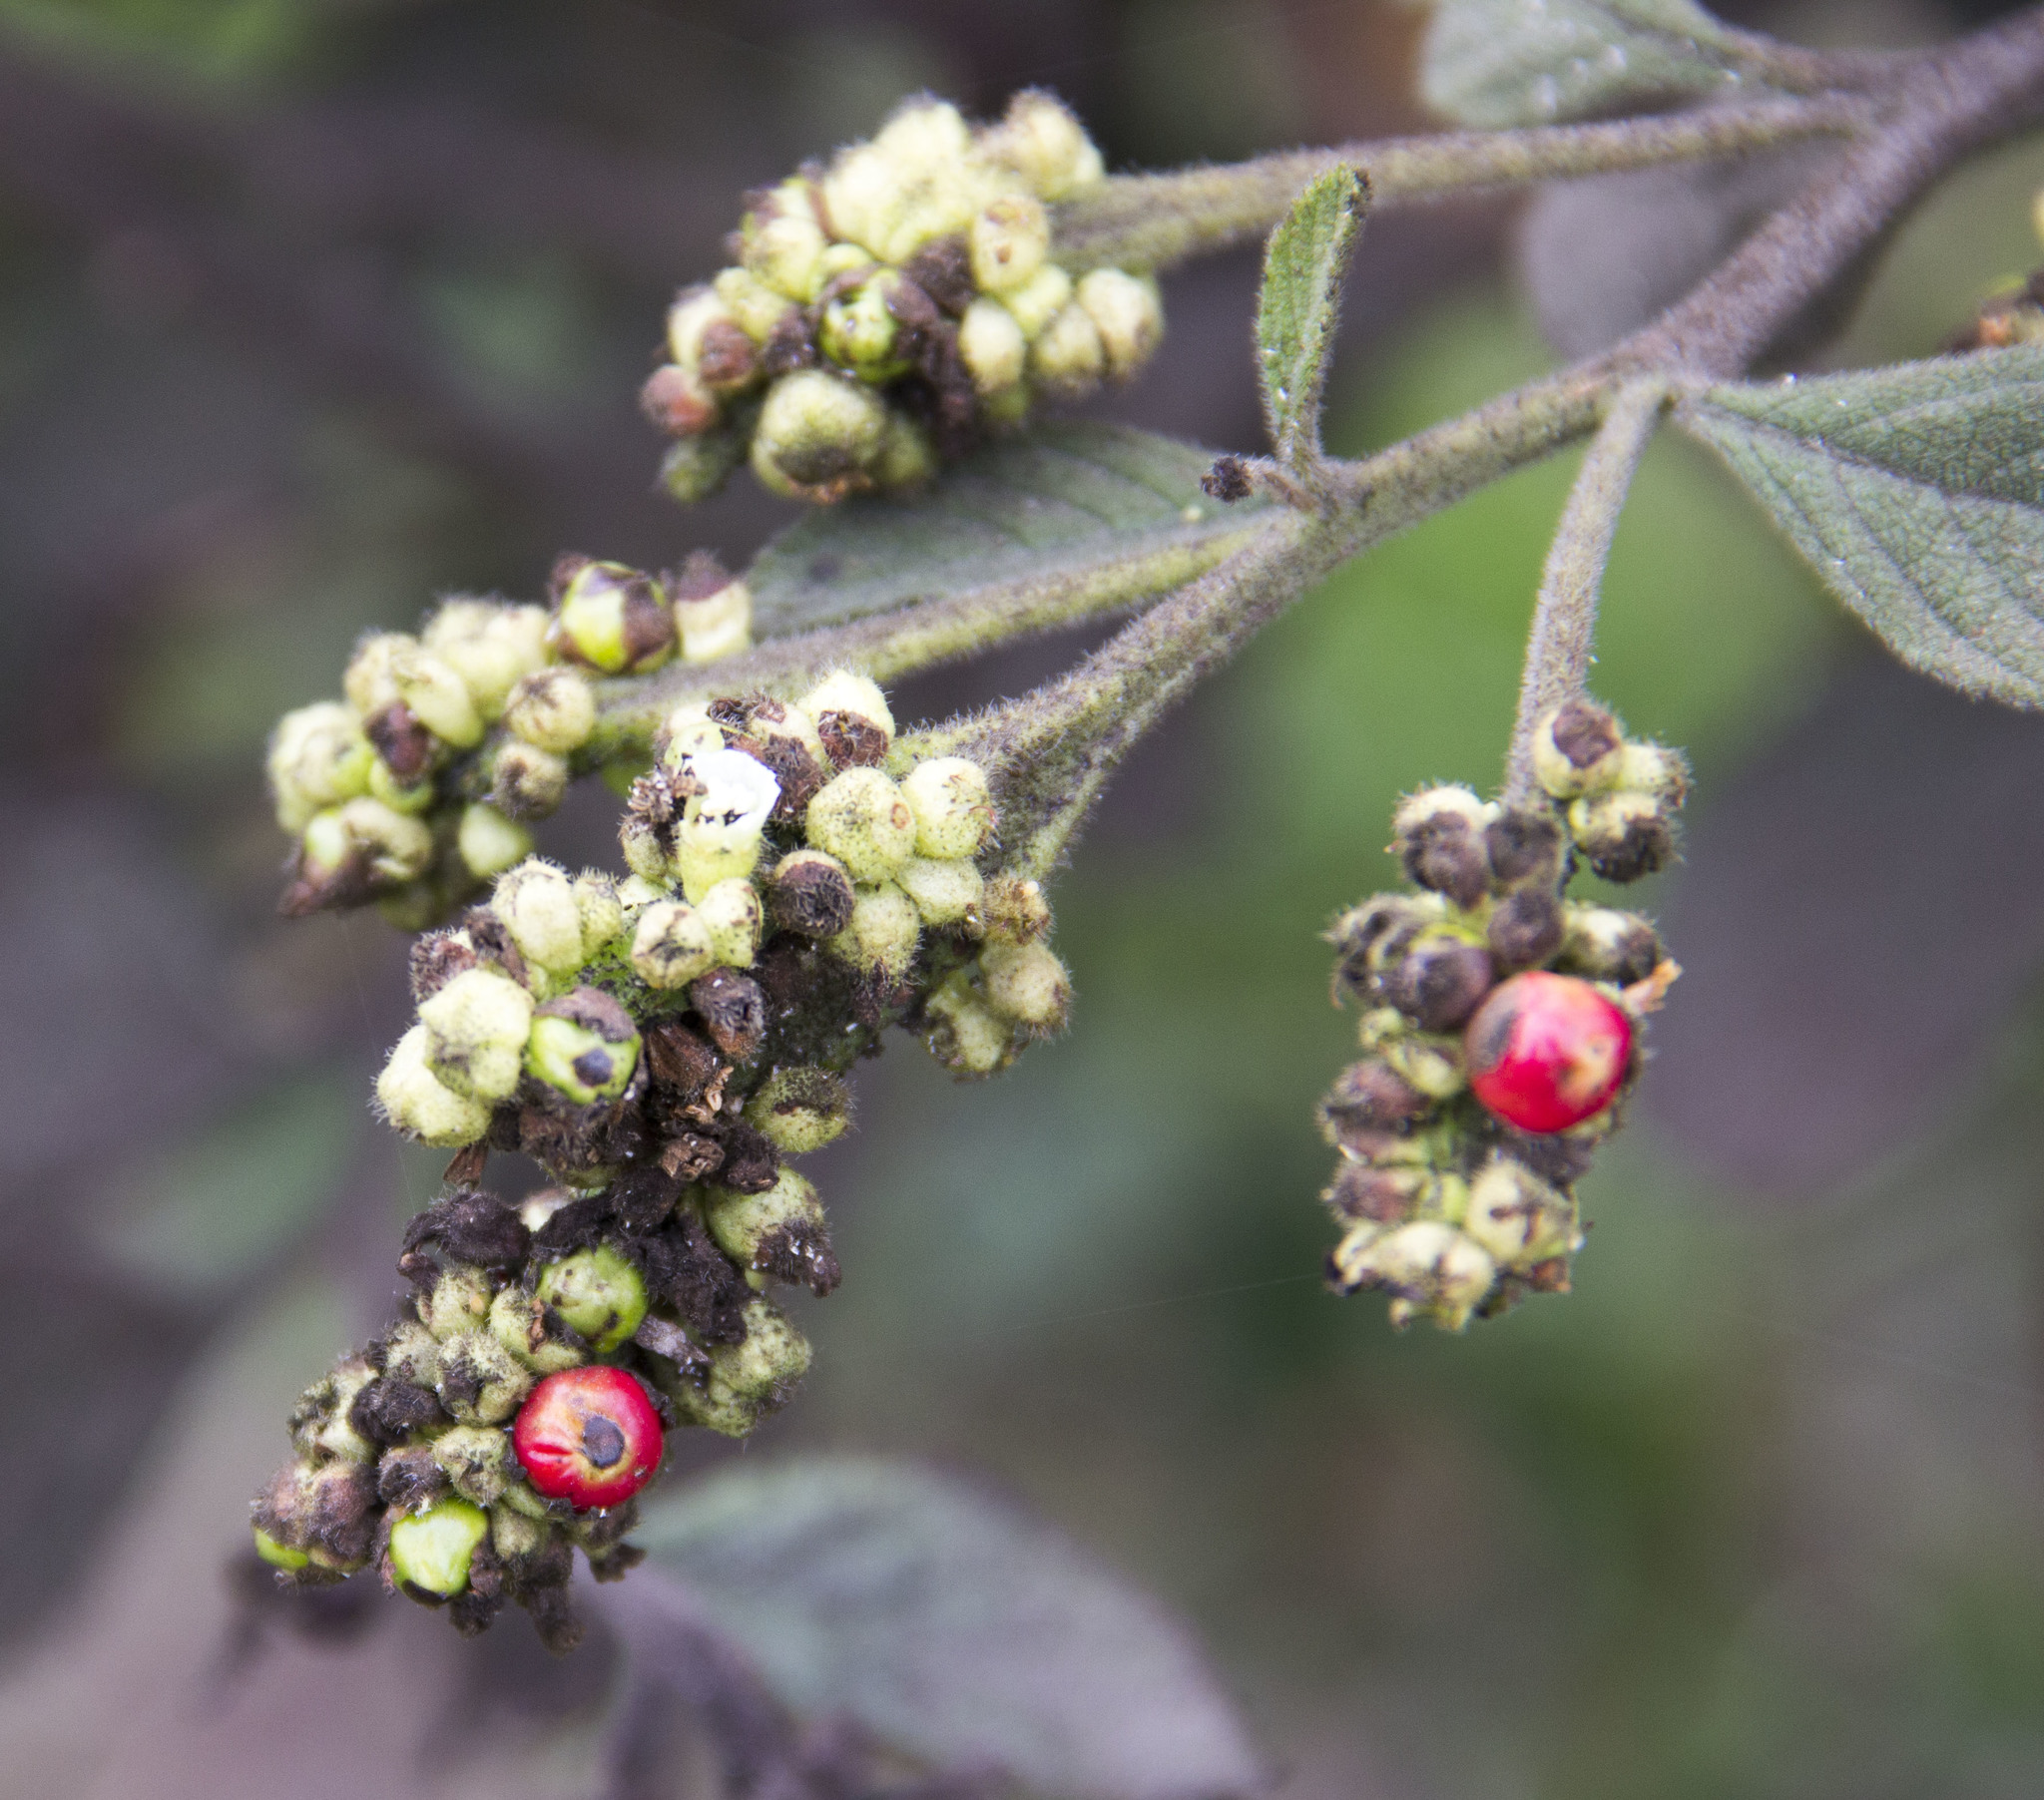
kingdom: Plantae
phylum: Tracheophyta
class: Magnoliopsida
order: Boraginales
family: Cordiaceae
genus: Varronia
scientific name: Varronia cylindrostachya
